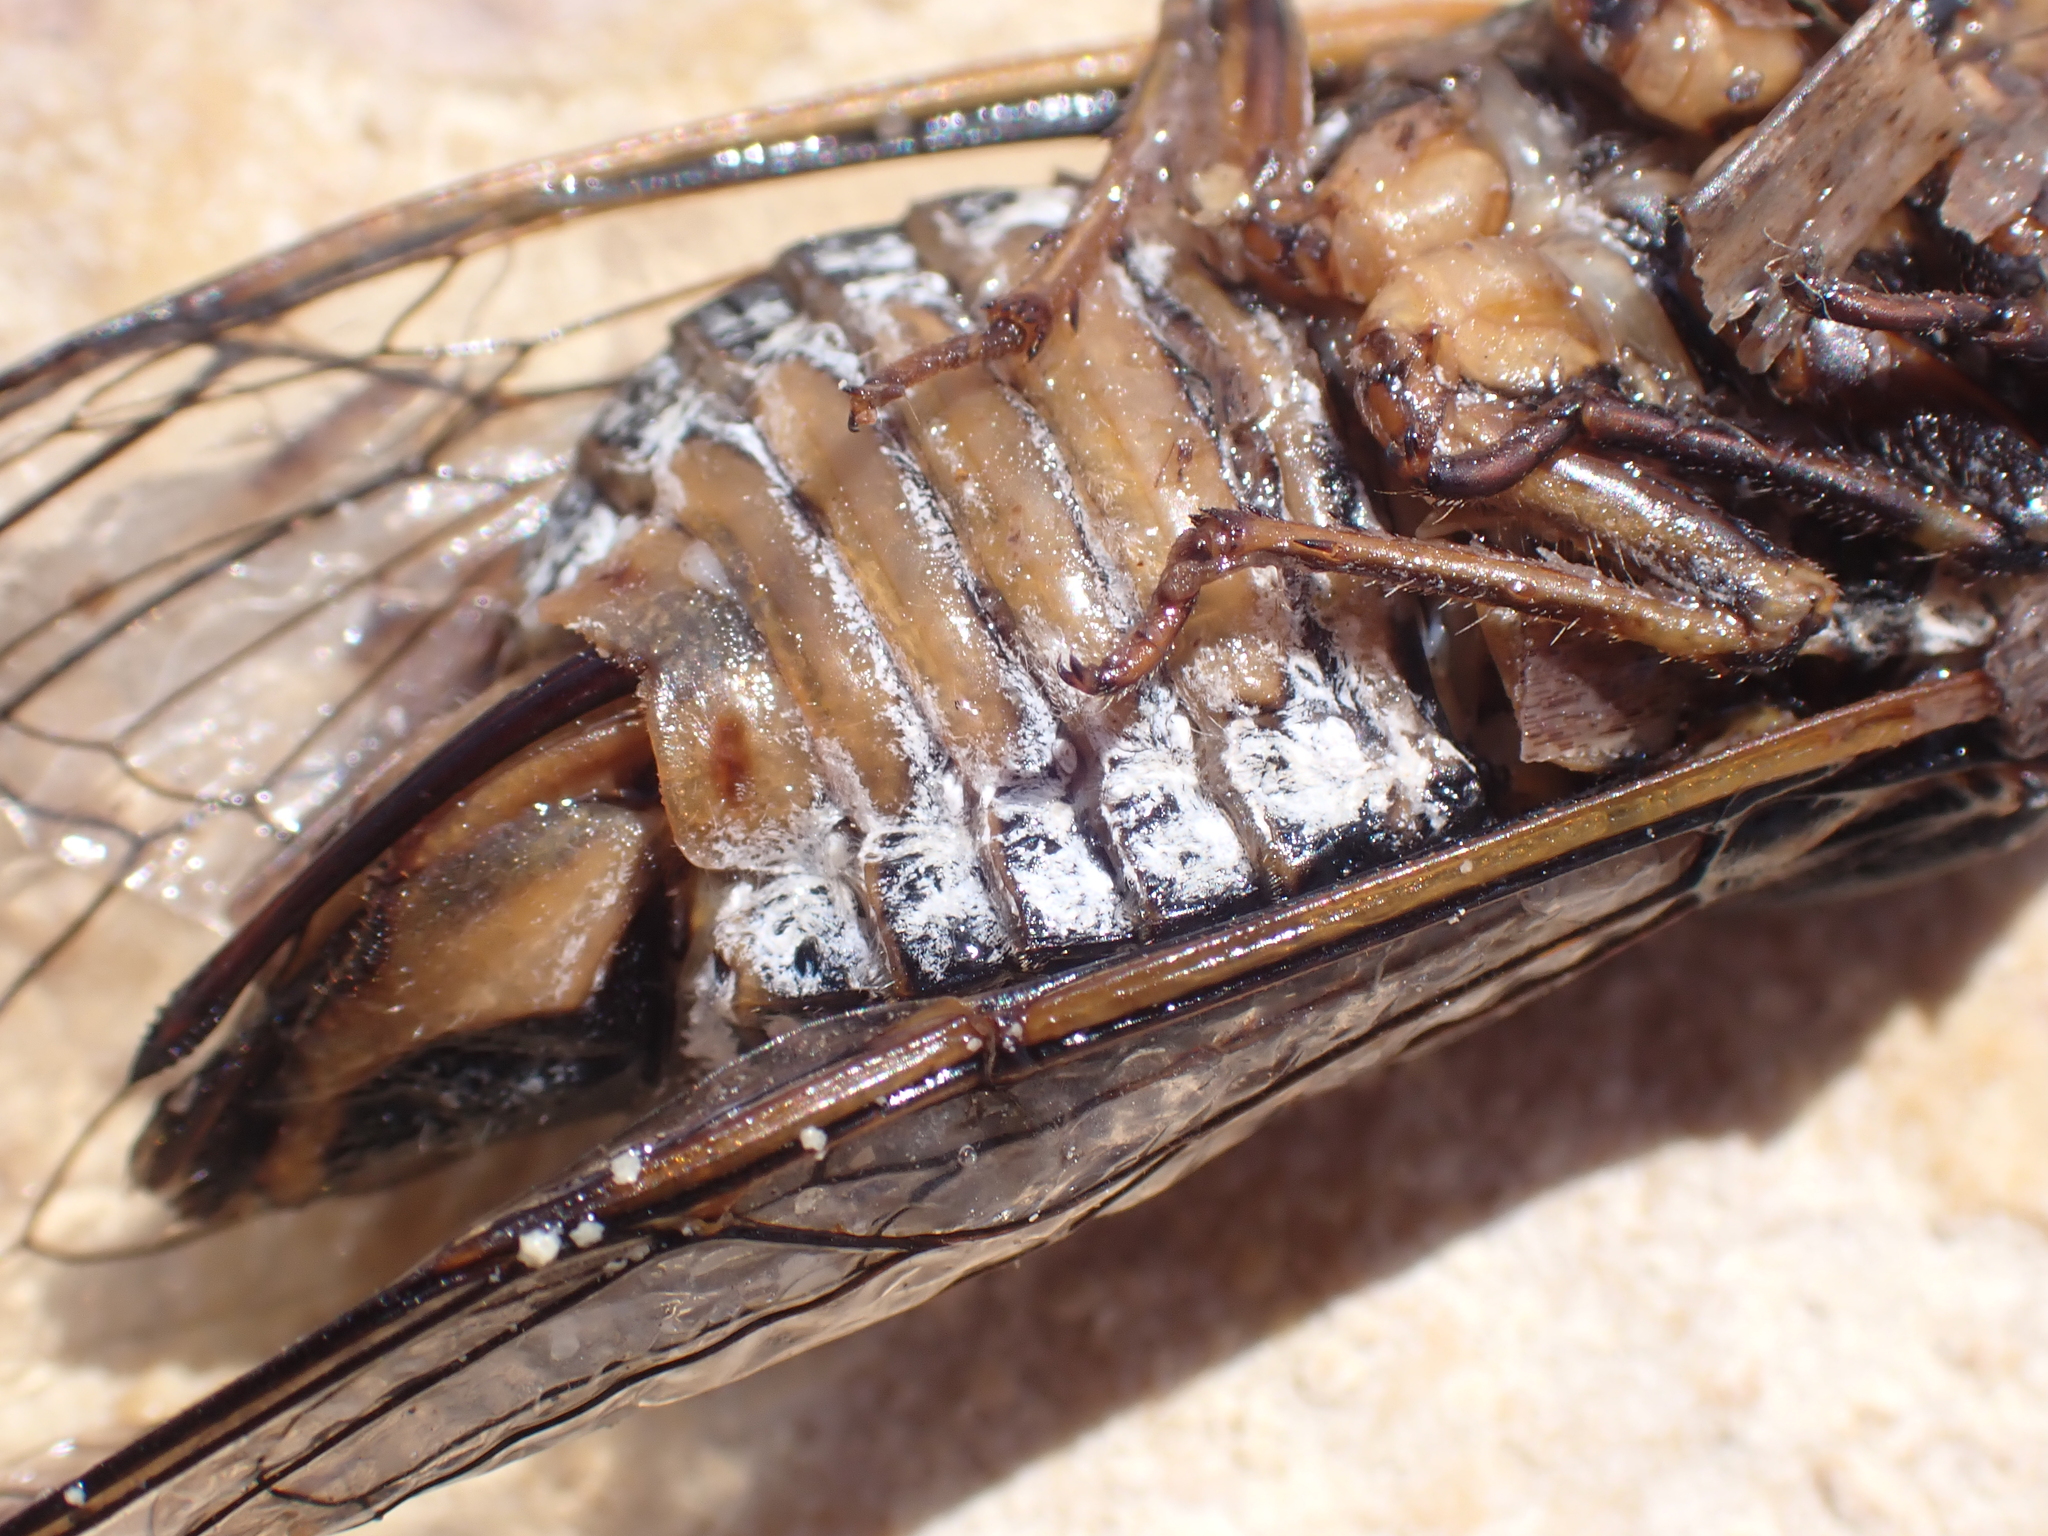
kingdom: Animalia
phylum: Arthropoda
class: Insecta
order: Hemiptera
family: Cicadidae
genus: Lyristes
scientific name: Lyristes plebejus
